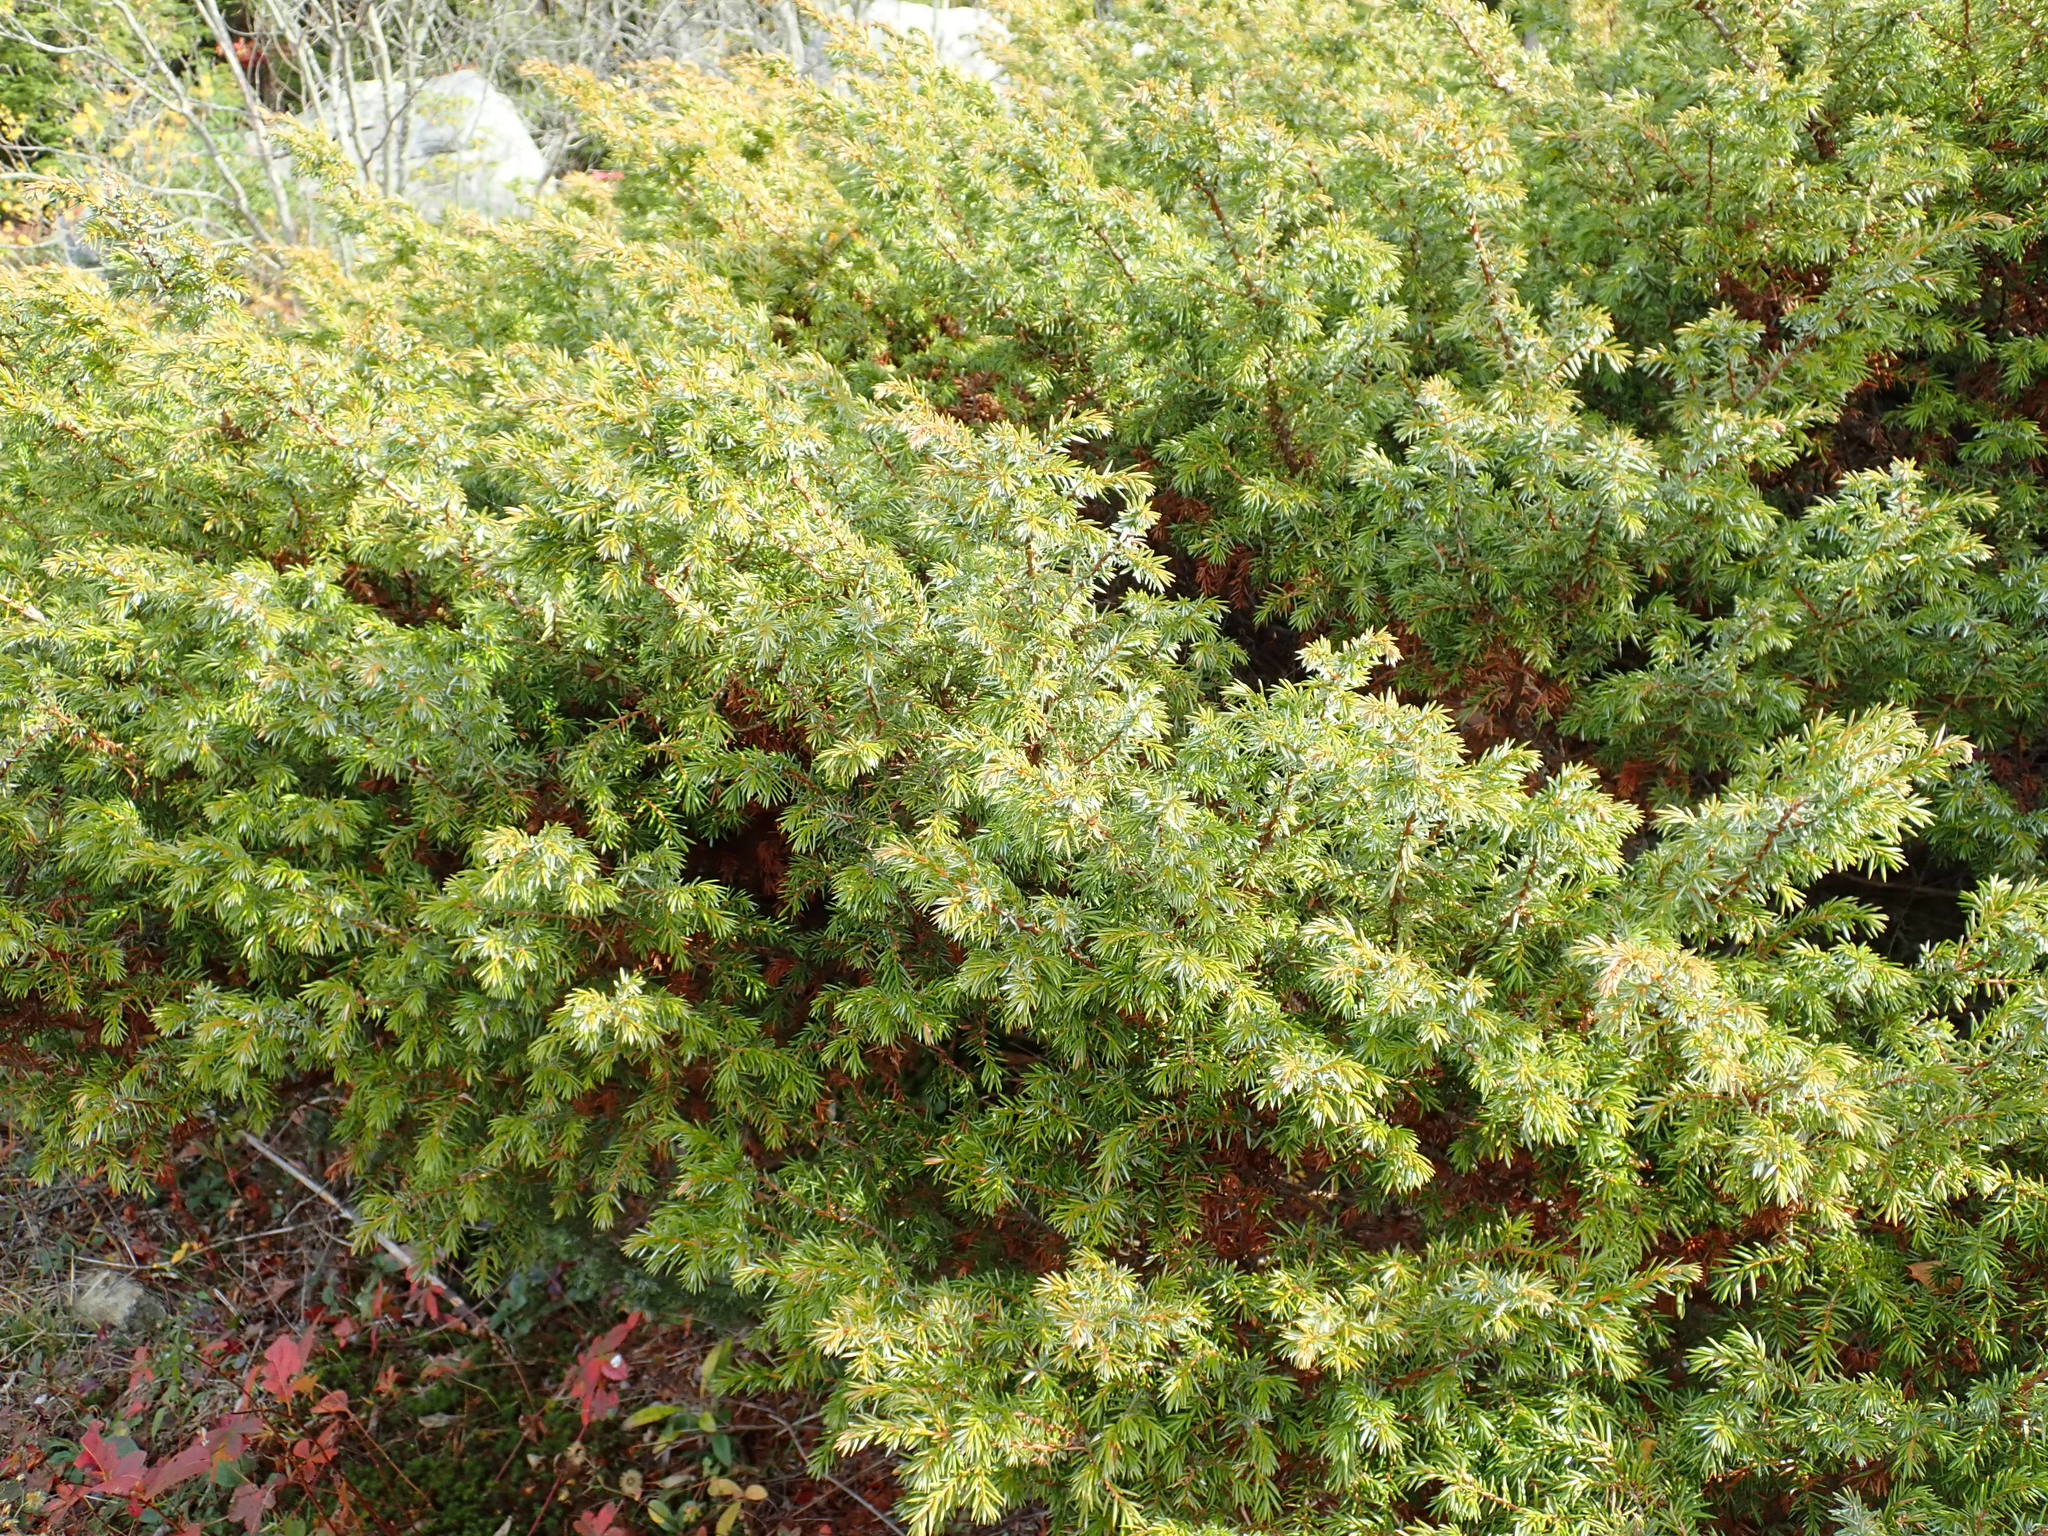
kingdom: Plantae
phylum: Tracheophyta
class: Pinopsida
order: Pinales
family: Cupressaceae
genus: Juniperus
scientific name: Juniperus communis
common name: Common juniper
